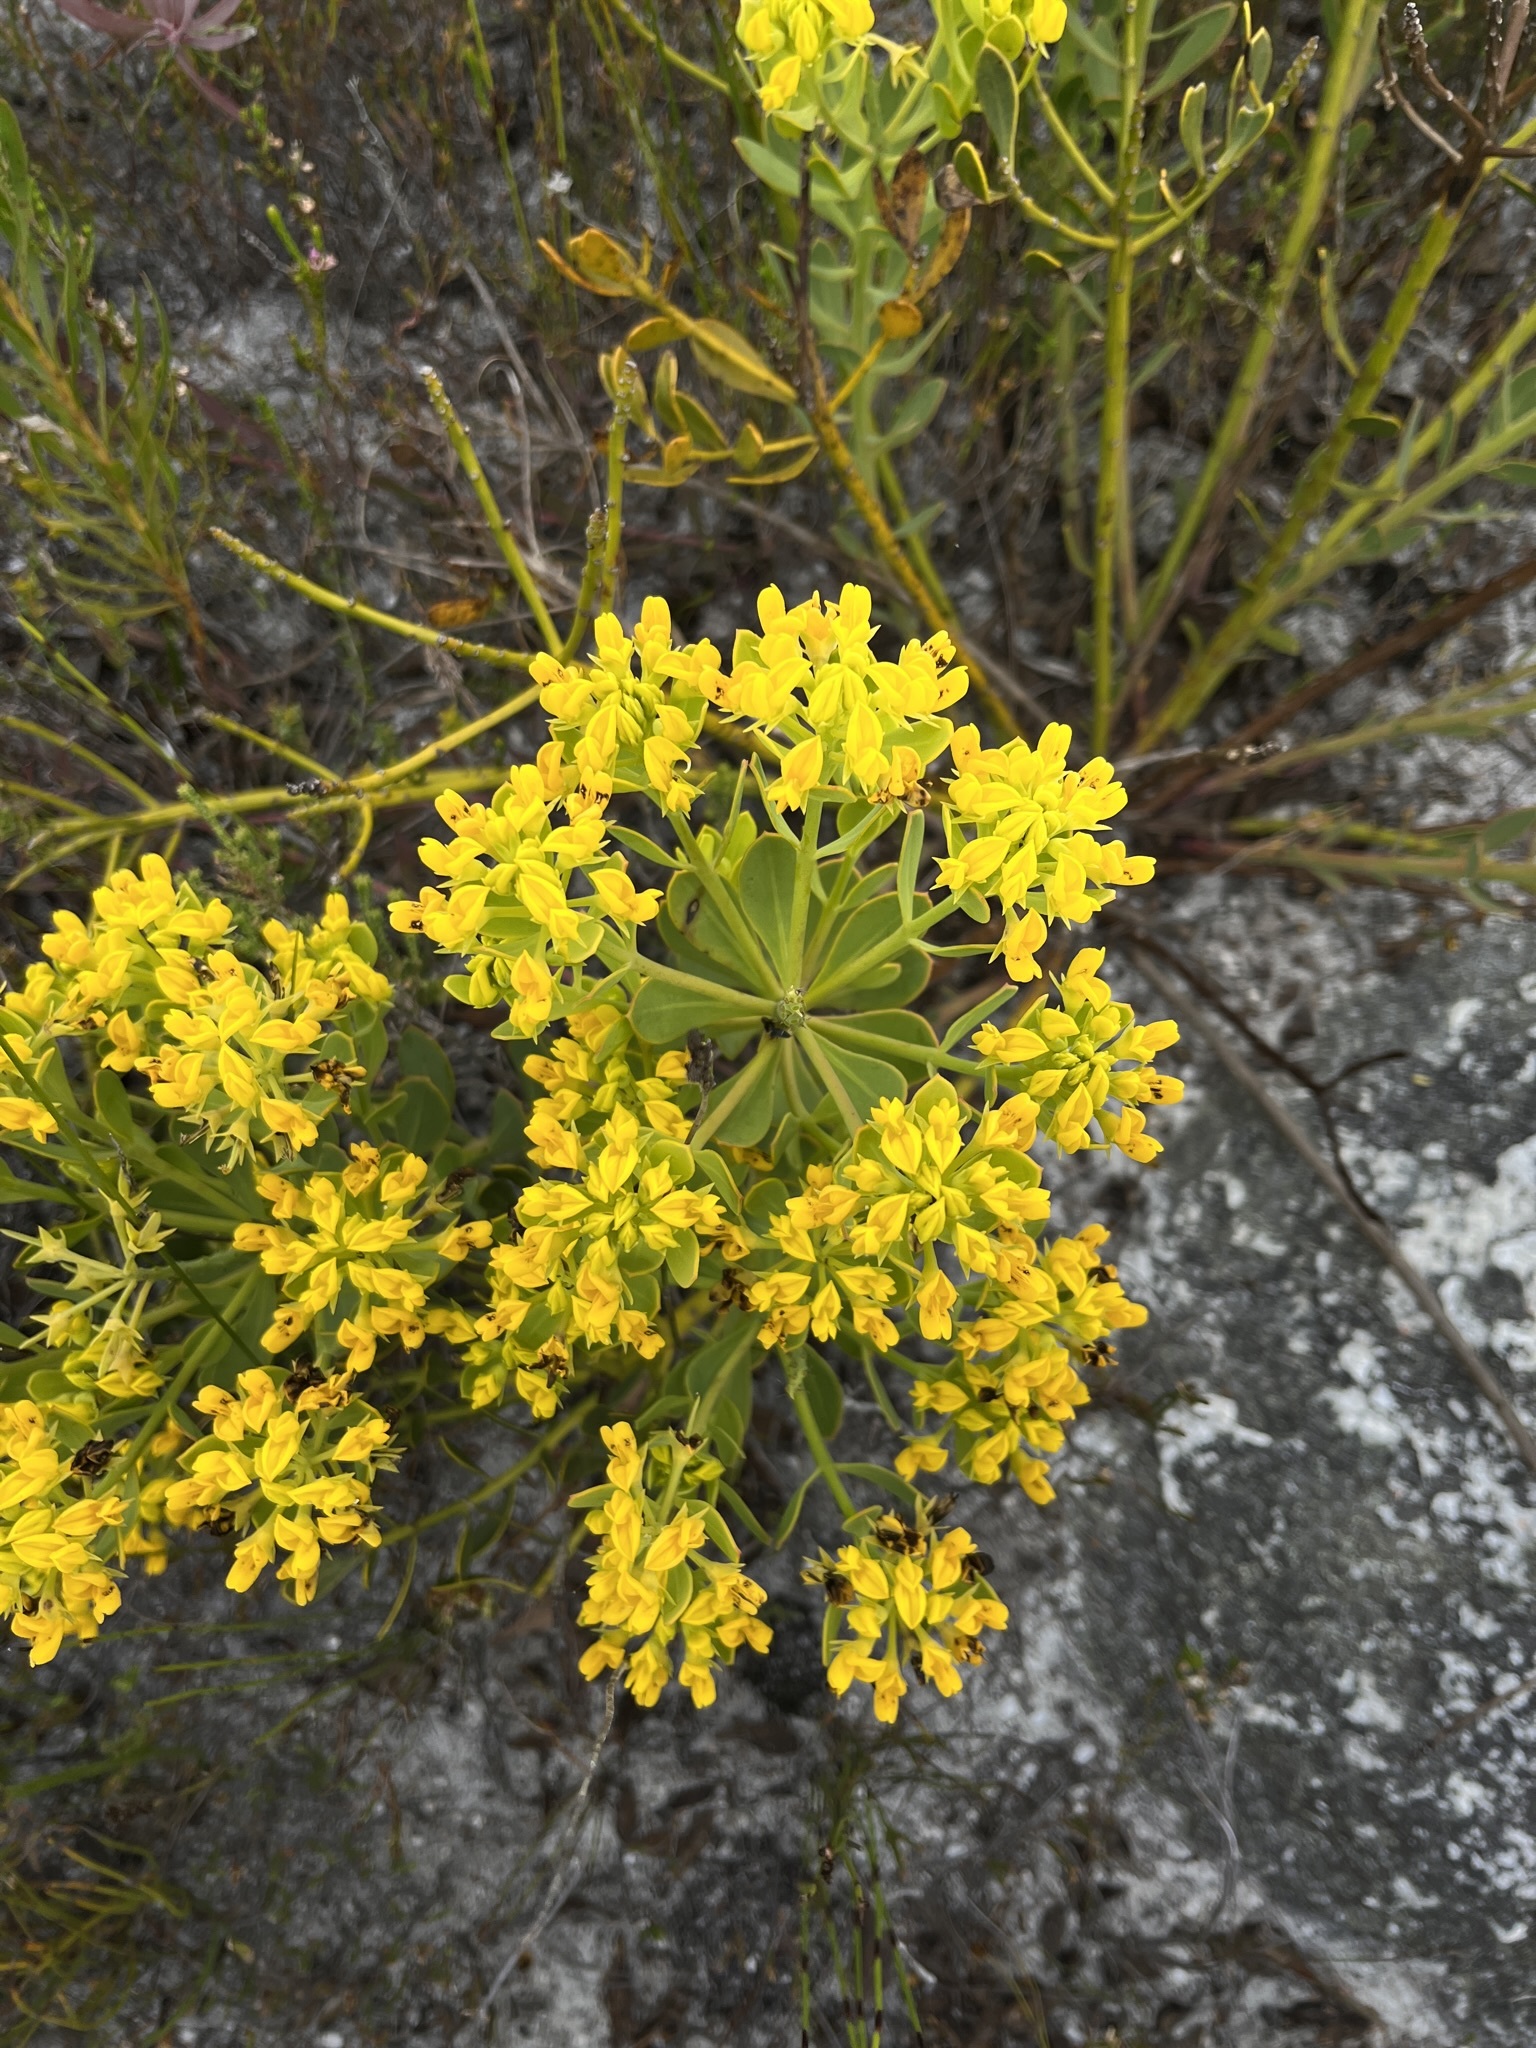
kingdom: Plantae
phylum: Tracheophyta
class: Magnoliopsida
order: Fabales
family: Fabaceae
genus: Rafnia
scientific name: Rafnia capensis
